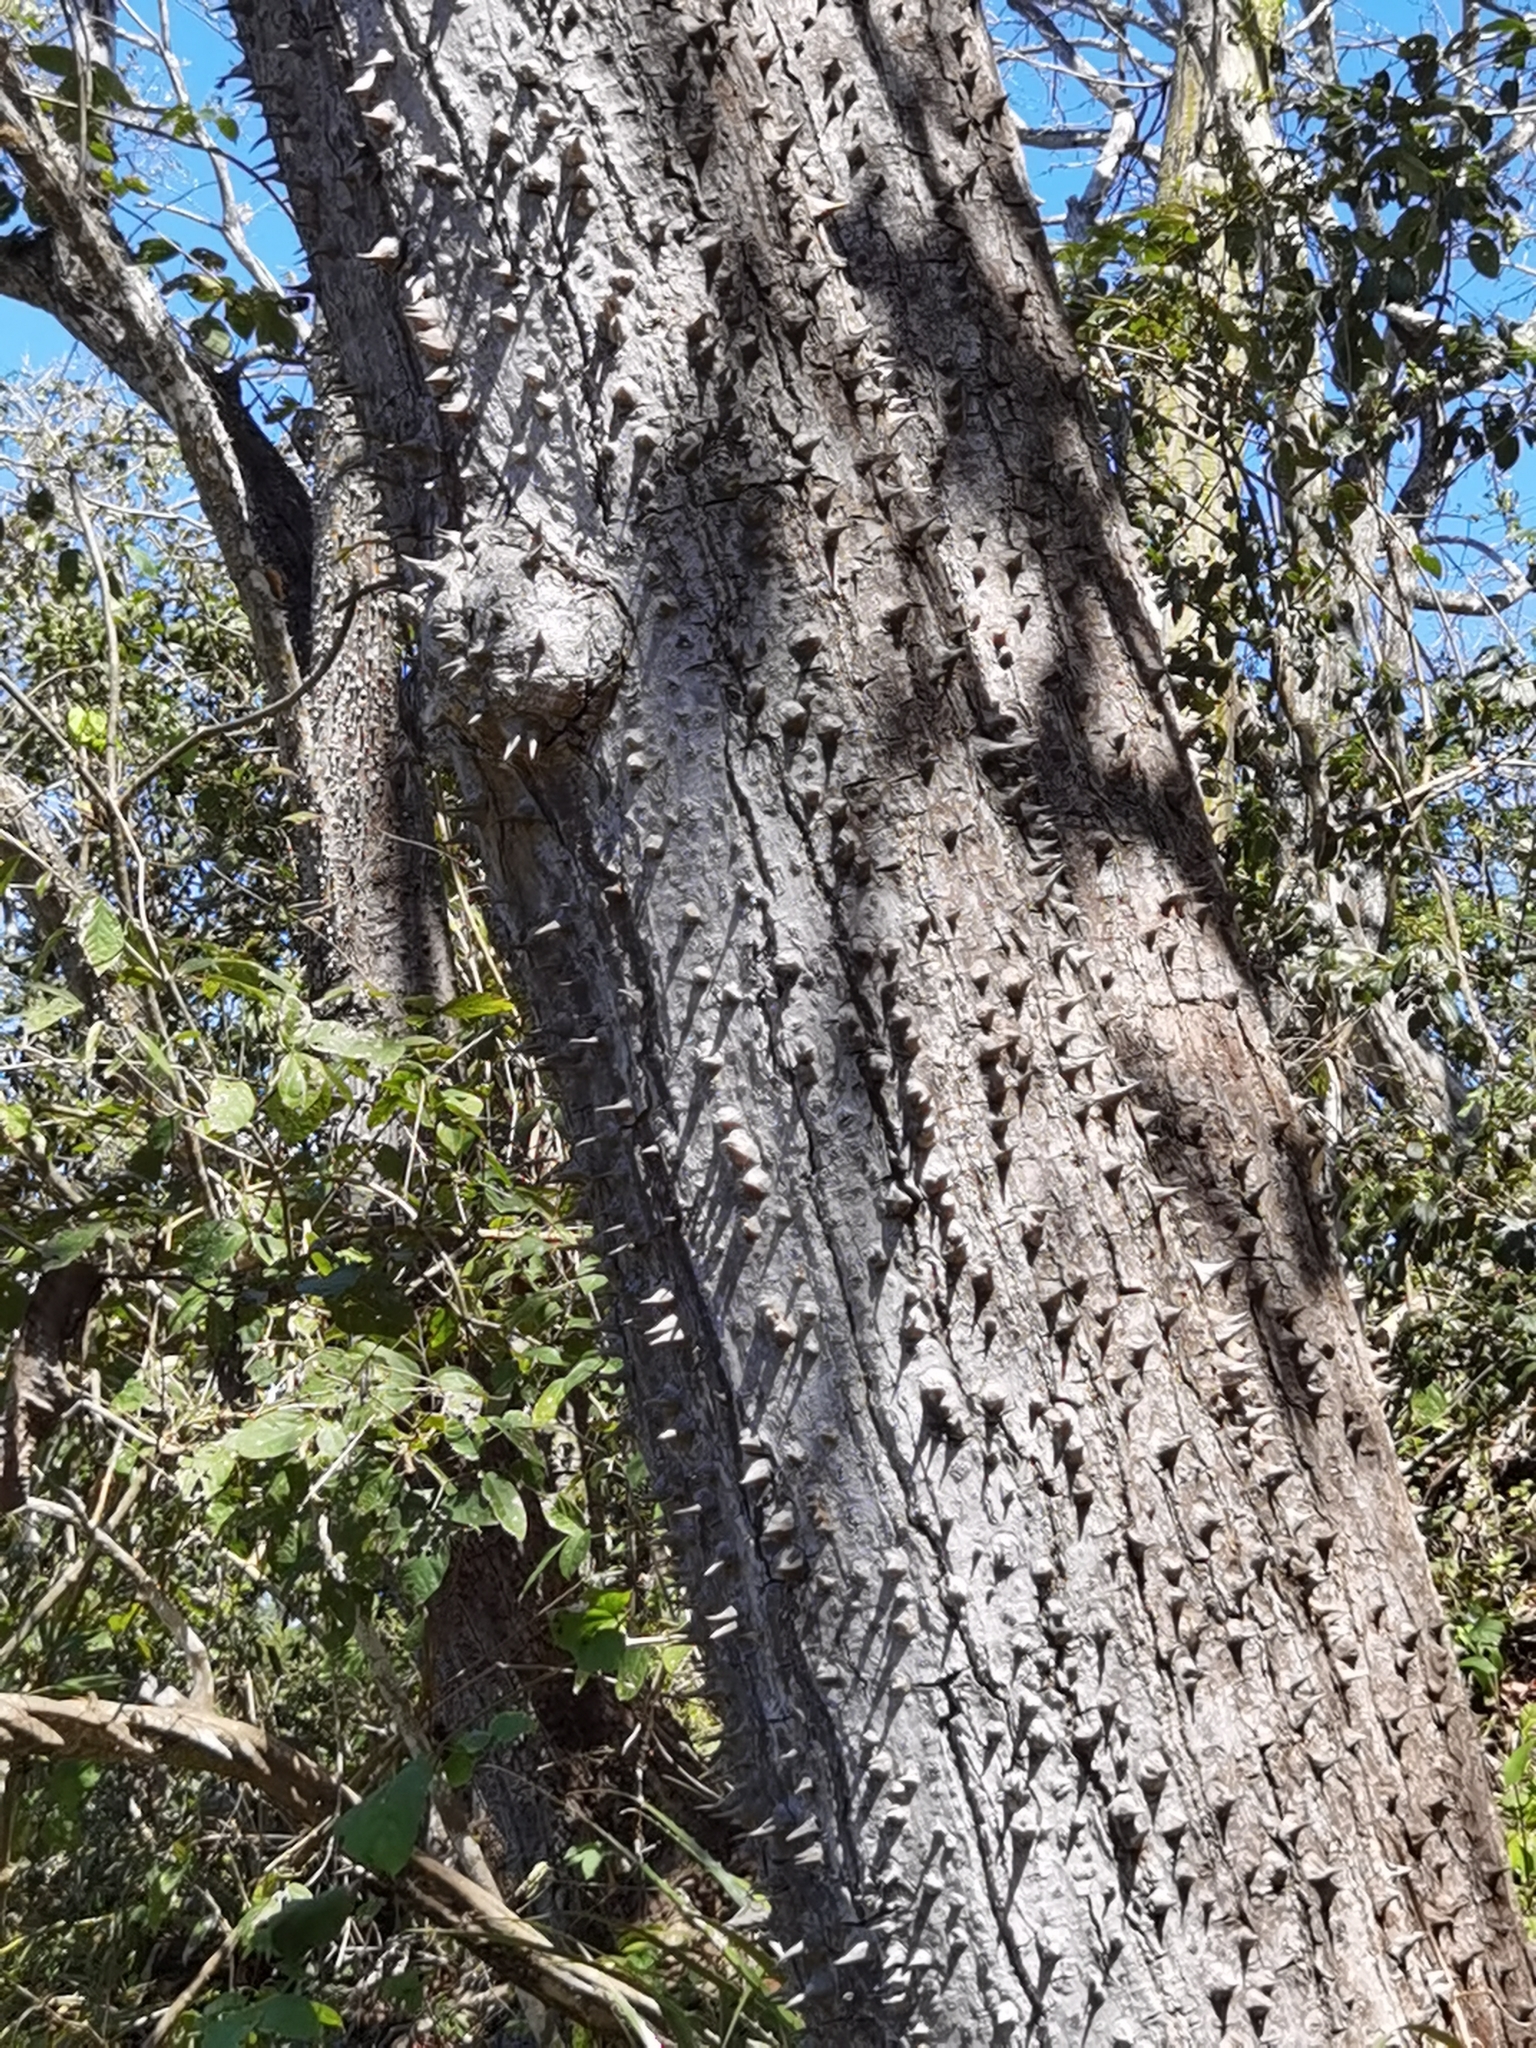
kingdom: Plantae
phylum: Tracheophyta
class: Magnoliopsida
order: Malvales
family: Malvaceae
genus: Pochota
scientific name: Pochota fendleri
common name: Chestnut
